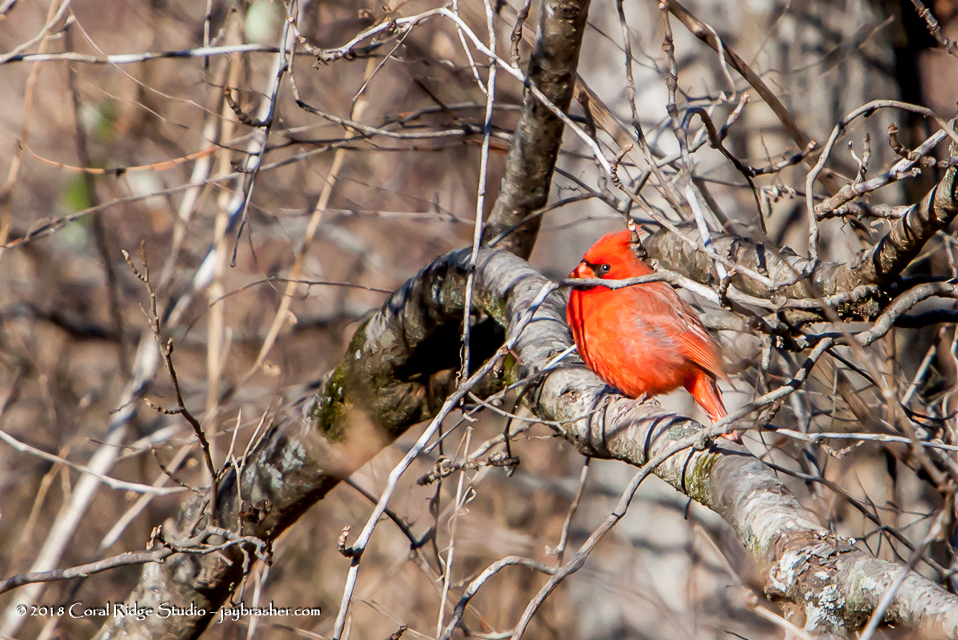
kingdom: Animalia
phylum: Chordata
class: Aves
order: Passeriformes
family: Cardinalidae
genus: Cardinalis
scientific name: Cardinalis cardinalis
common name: Northern cardinal
